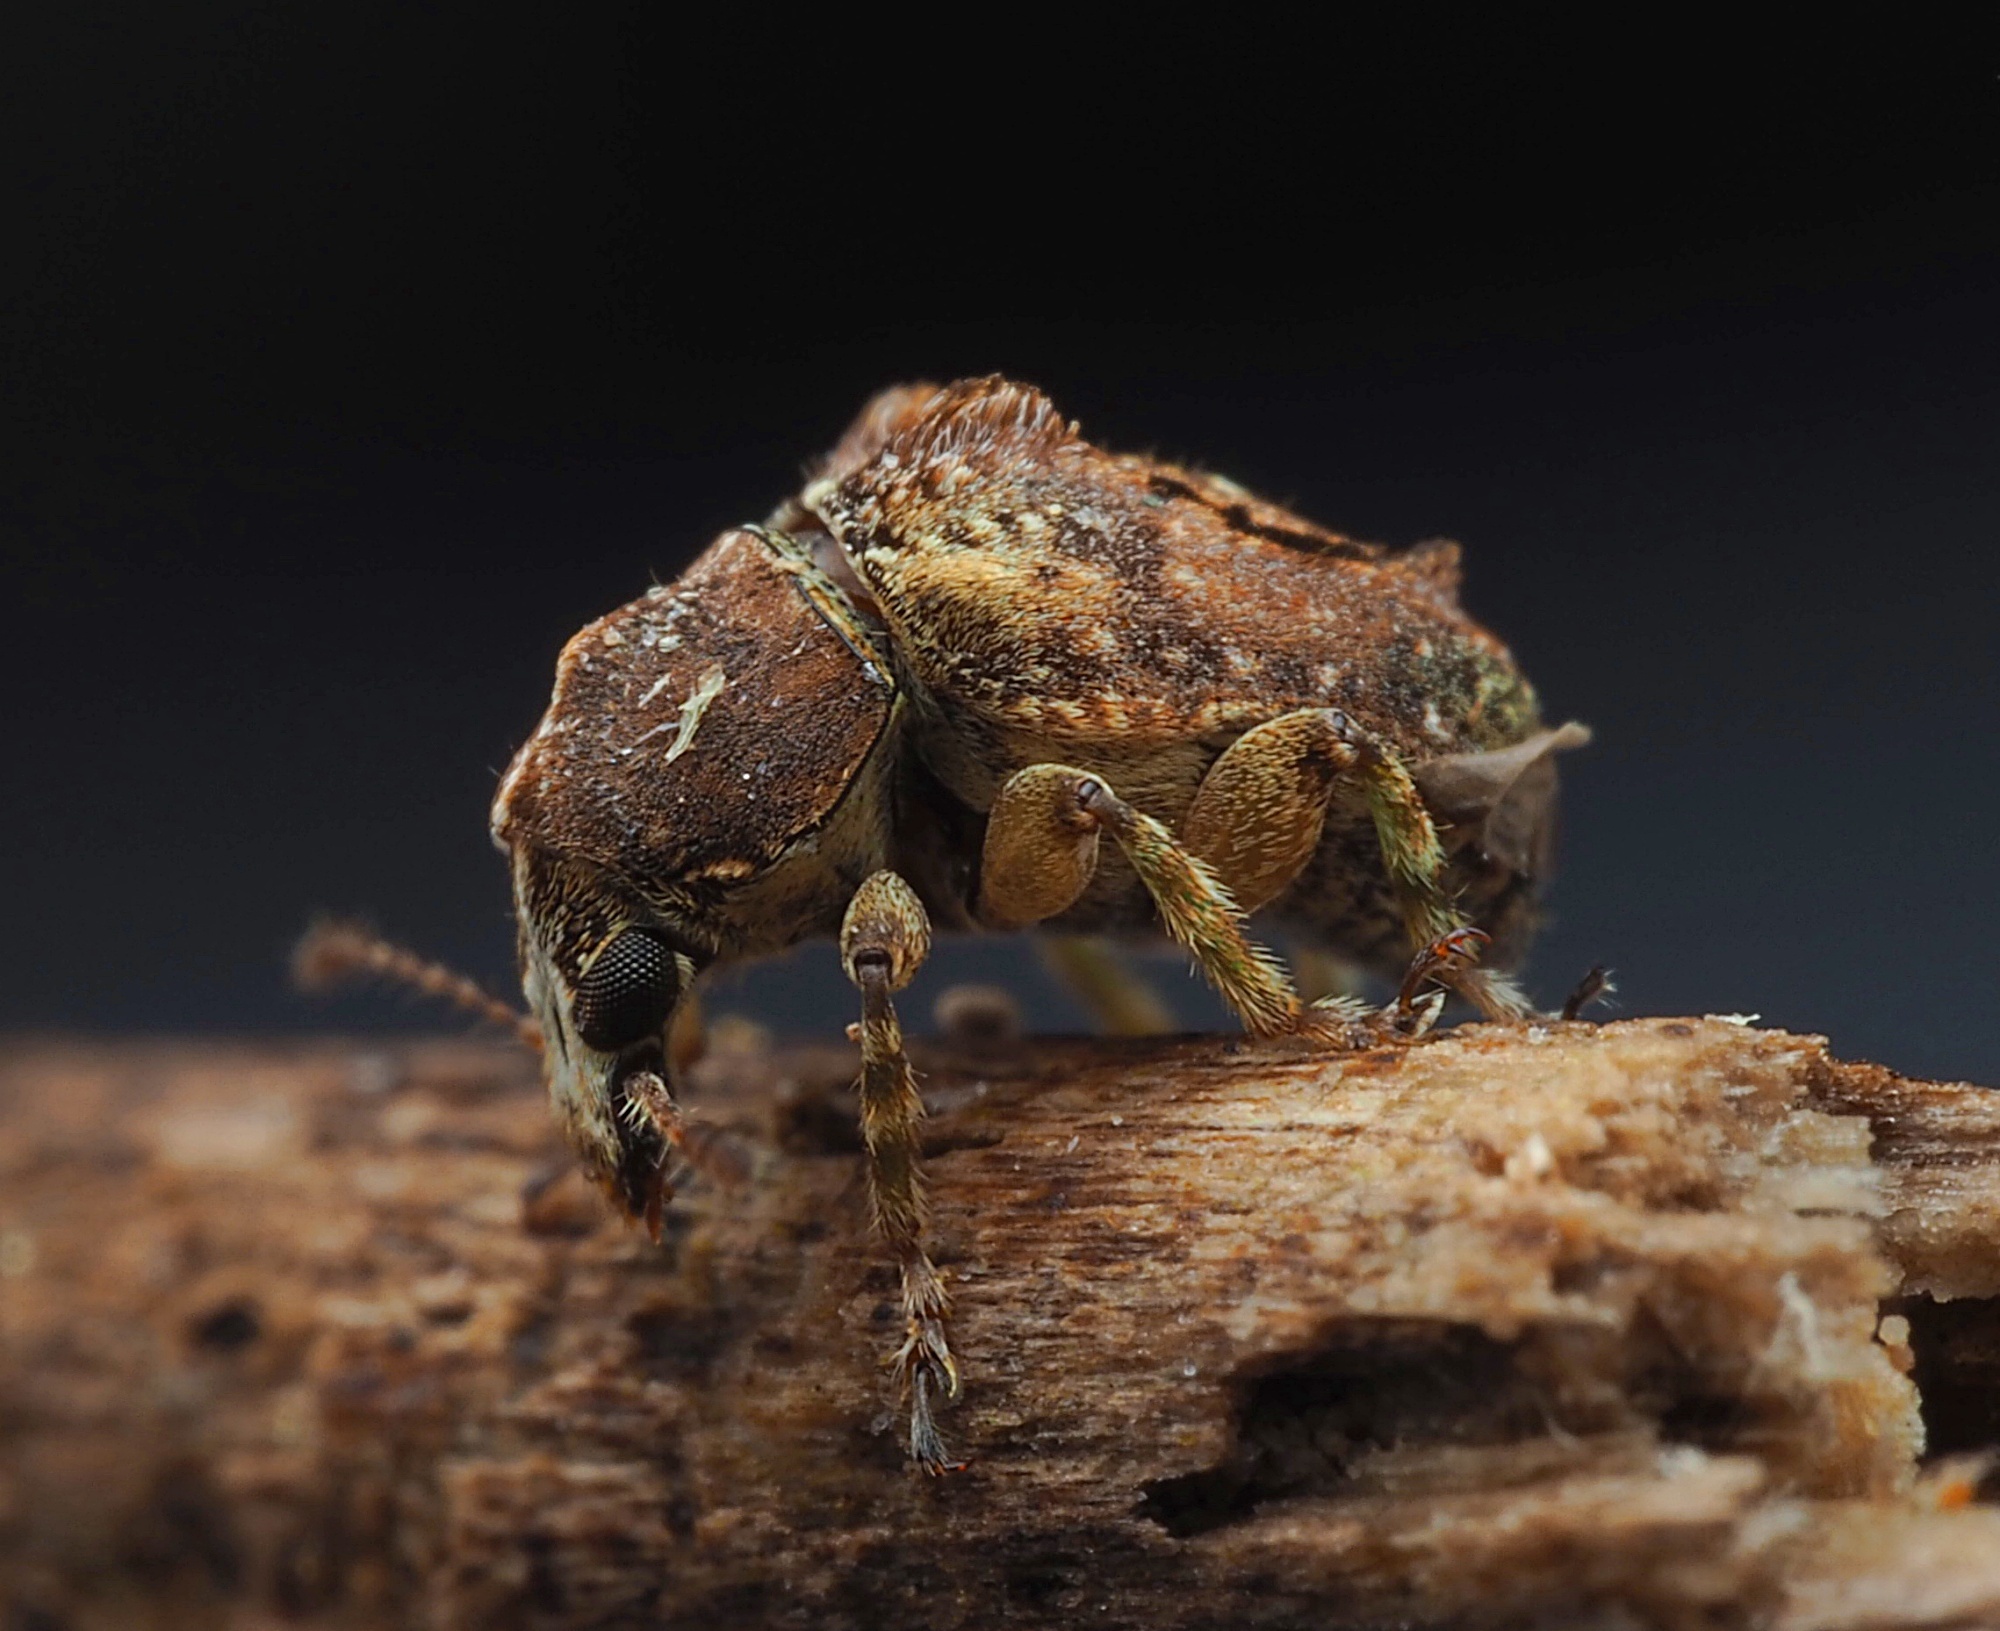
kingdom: Animalia
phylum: Arthropoda
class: Insecta
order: Coleoptera
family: Anthribidae
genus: Garyus
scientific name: Garyus altus
